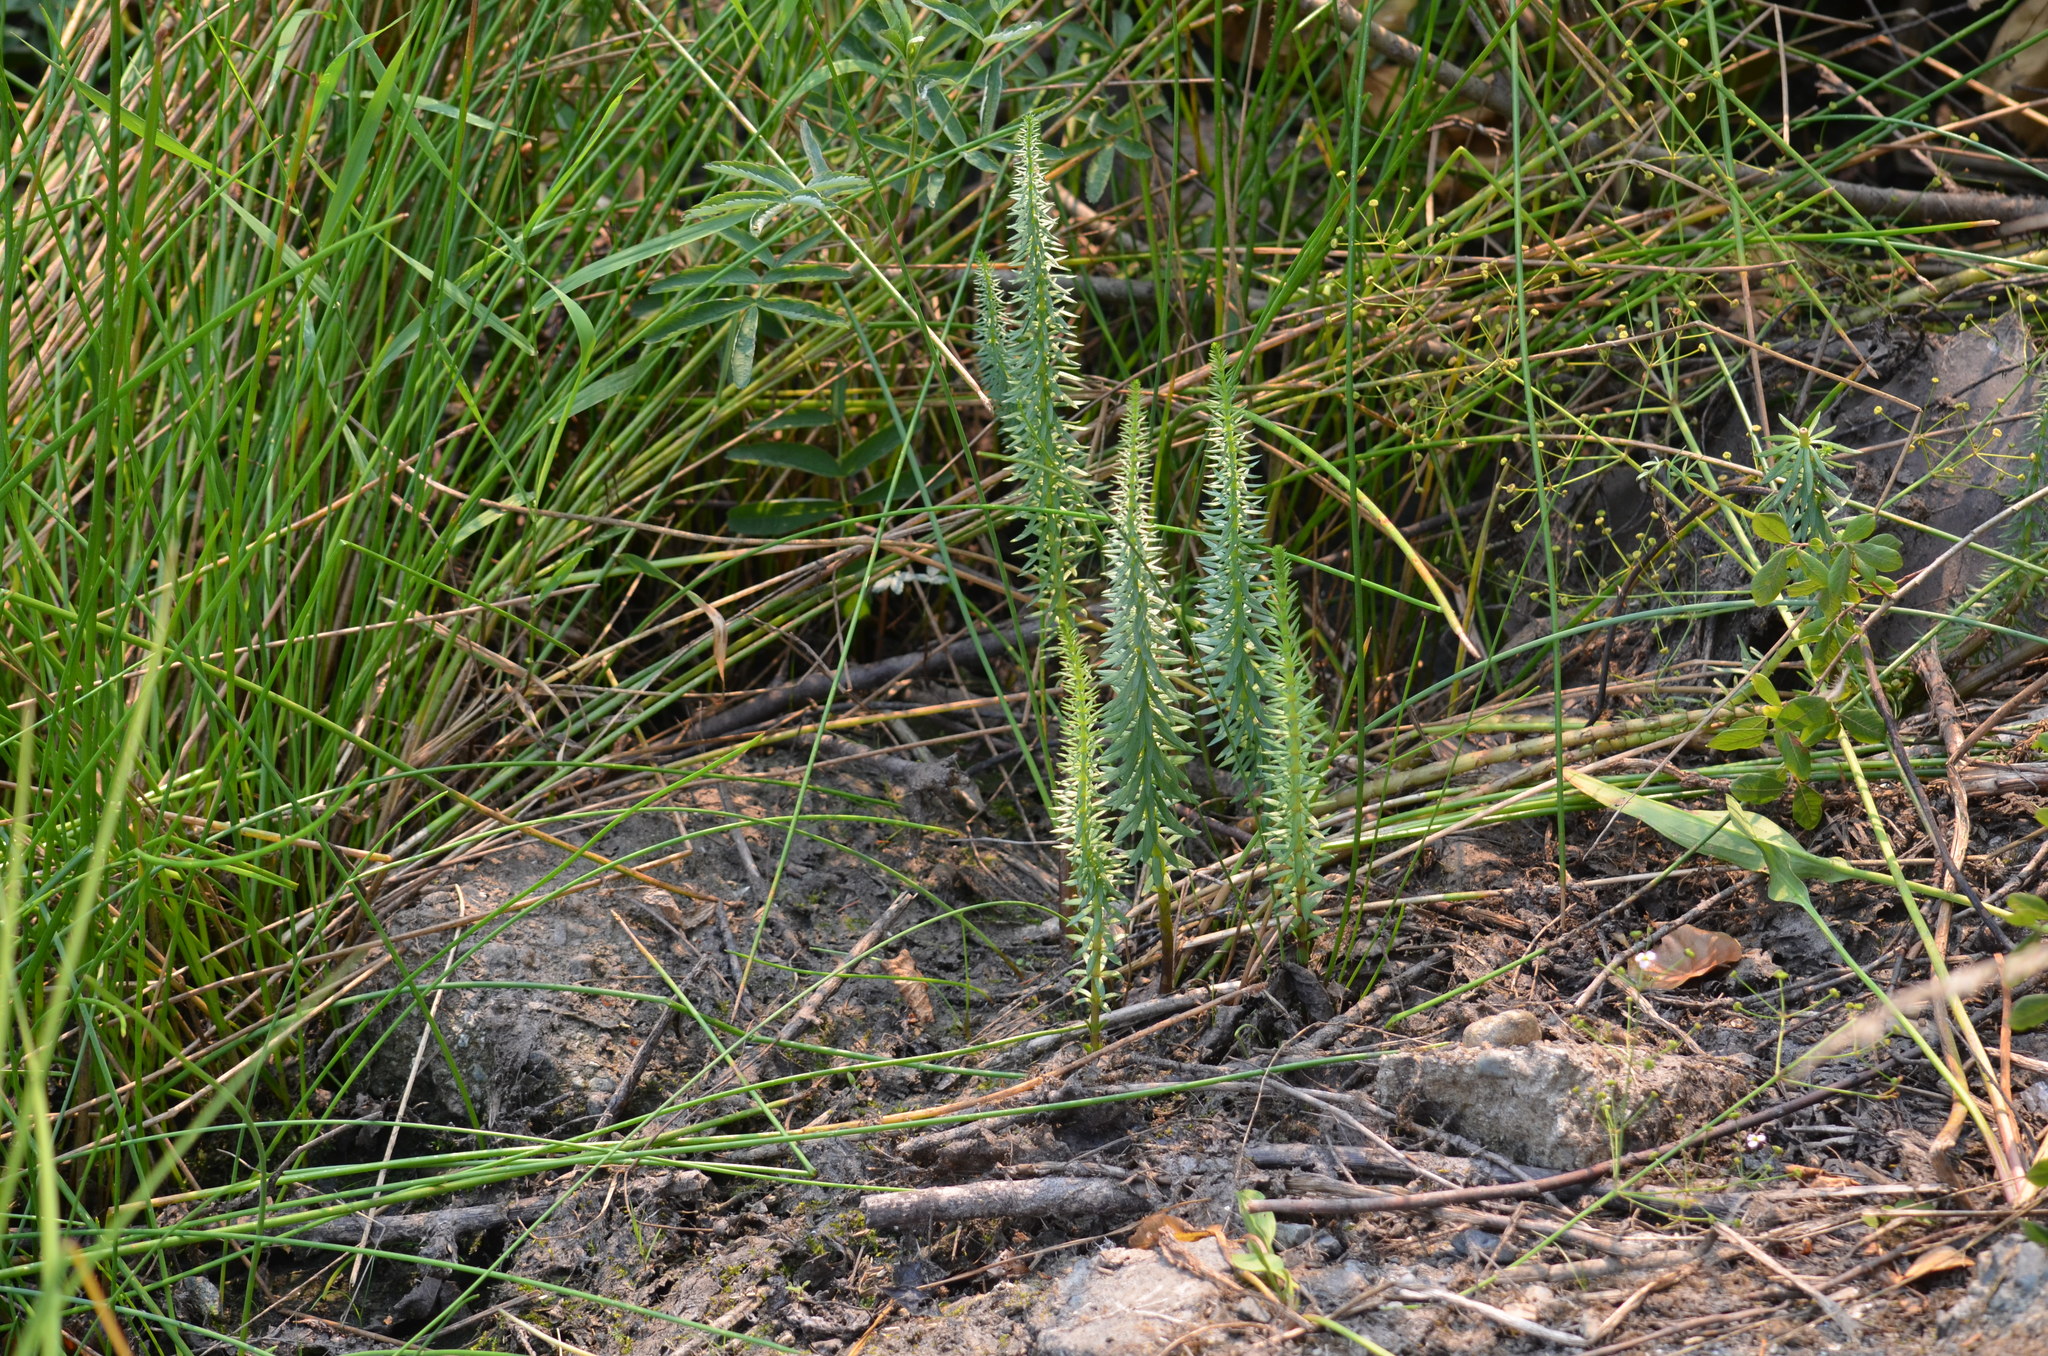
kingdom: Plantae
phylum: Tracheophyta
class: Magnoliopsida
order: Lamiales
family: Plantaginaceae
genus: Hippuris
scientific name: Hippuris vulgaris
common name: Mare's-tail
